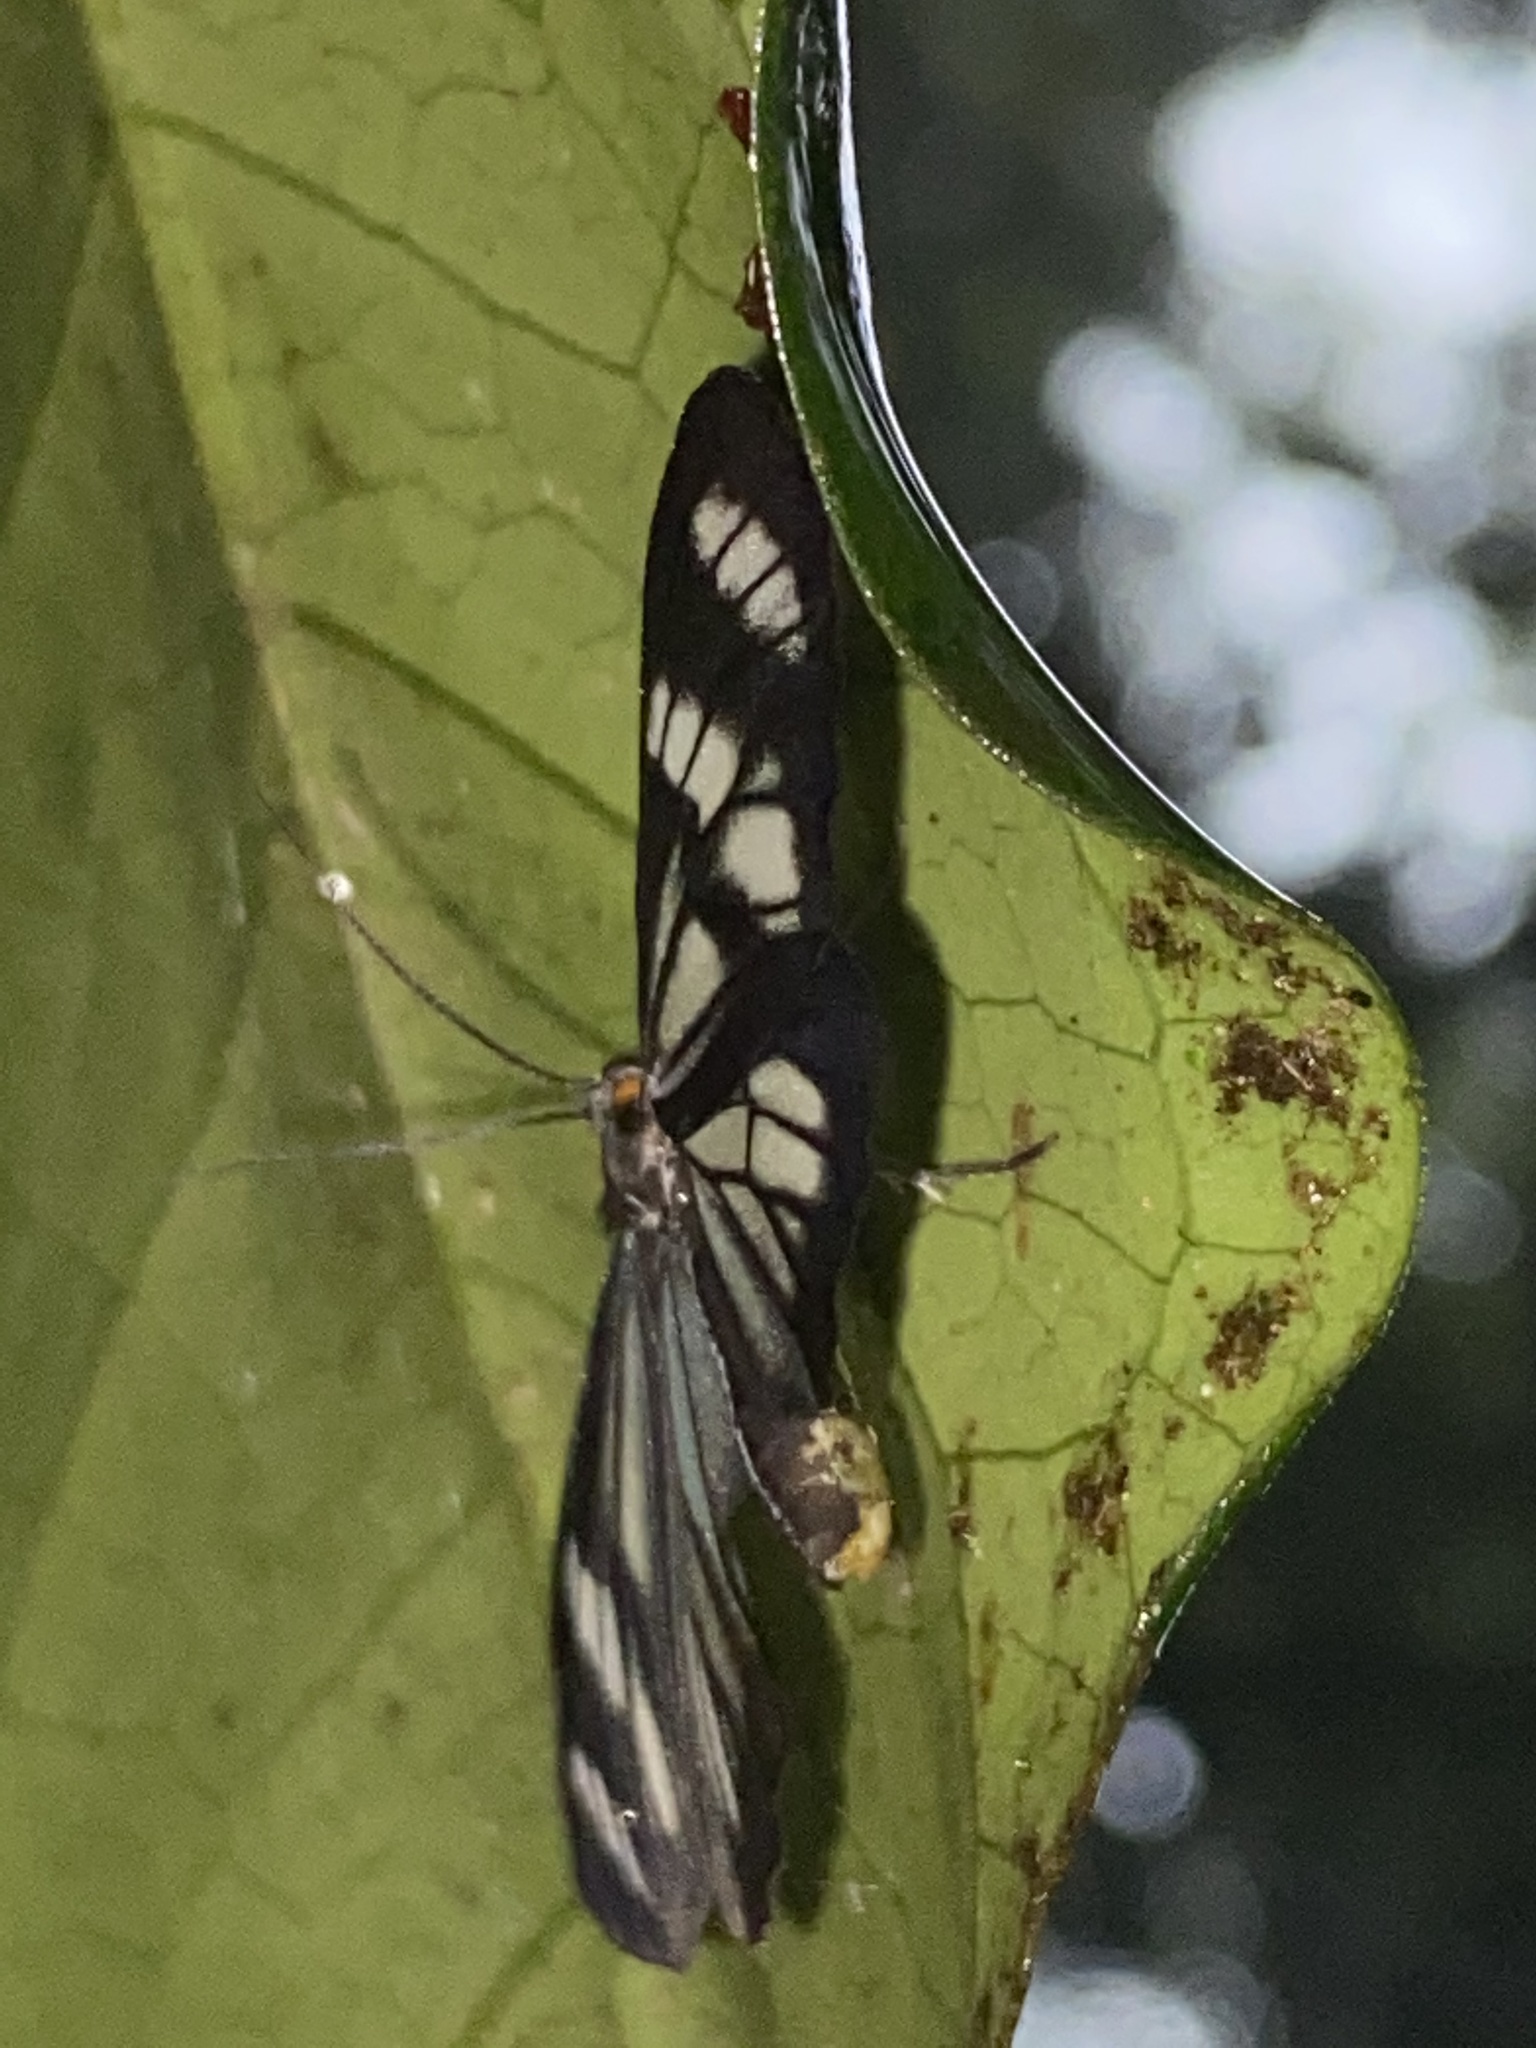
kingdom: Animalia
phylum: Arthropoda
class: Insecta
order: Lepidoptera
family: Notodontidae
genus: Dioptis
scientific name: Dioptis areolata
